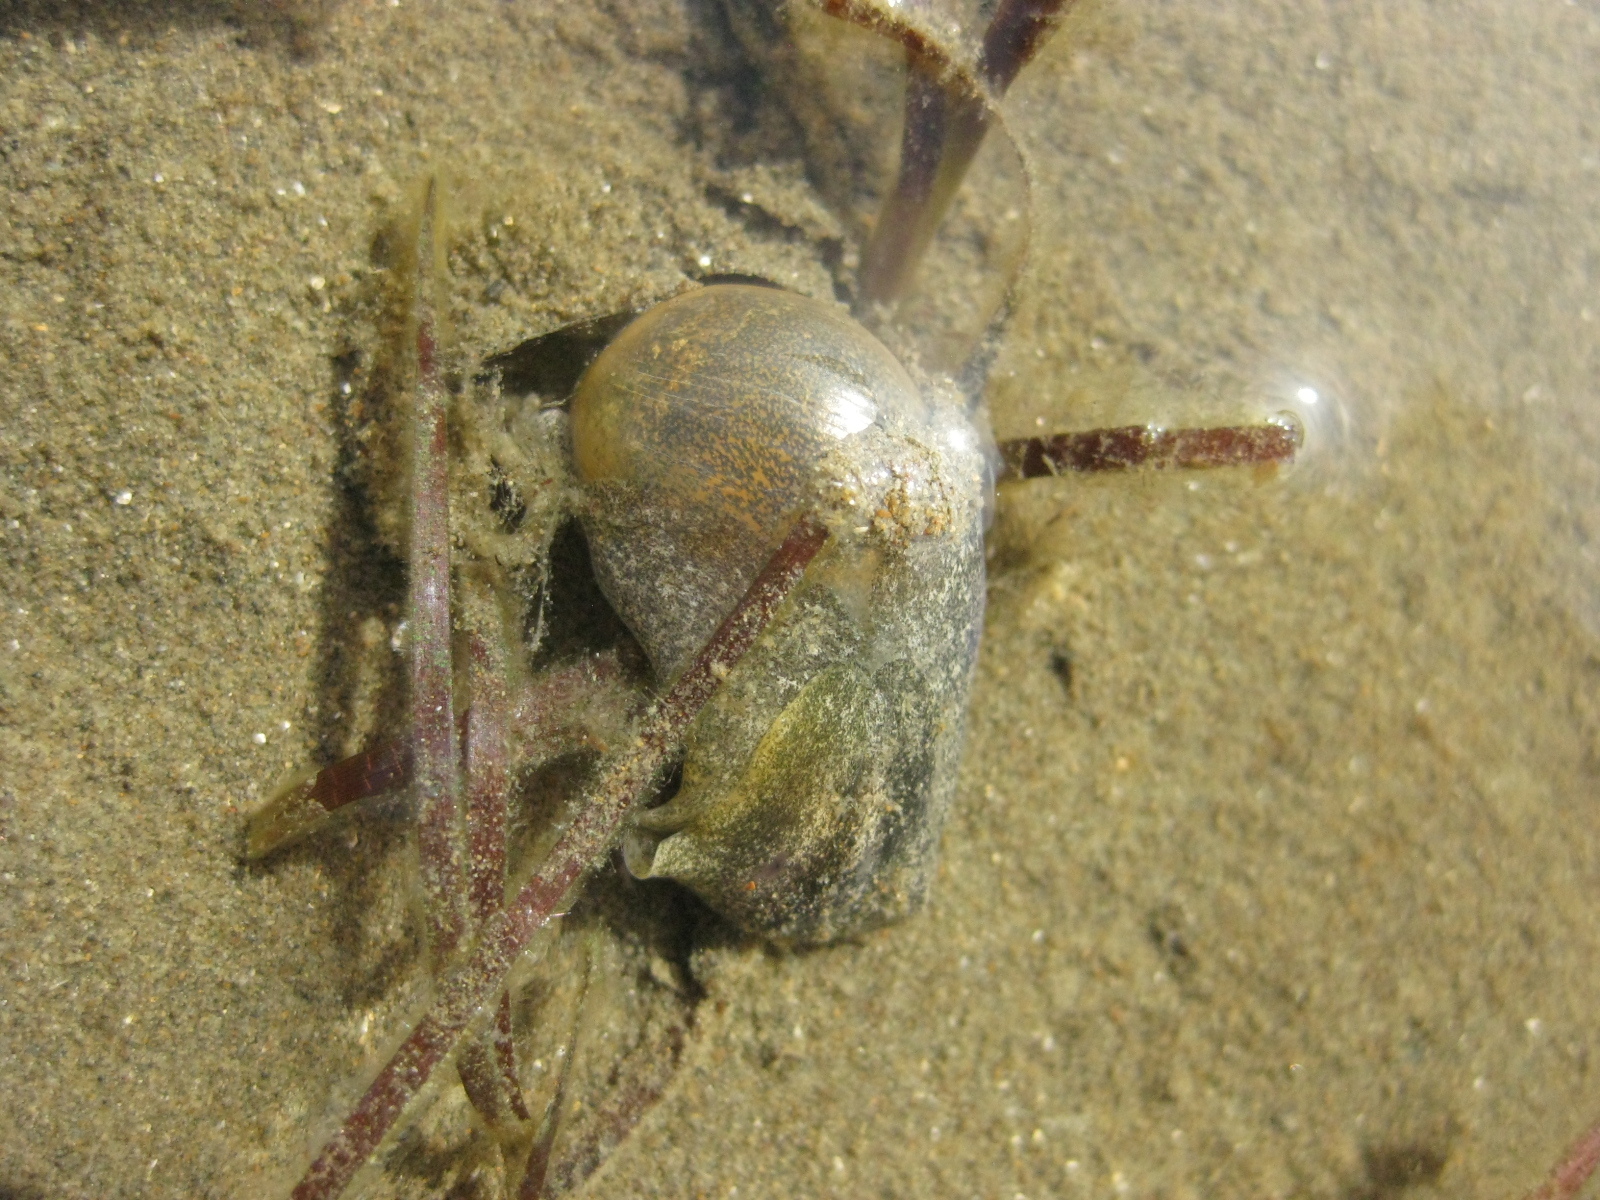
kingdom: Animalia
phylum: Mollusca
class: Gastropoda
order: Cephalaspidea
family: Haminoeidae
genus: Papawera
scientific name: Papawera zelandiae
